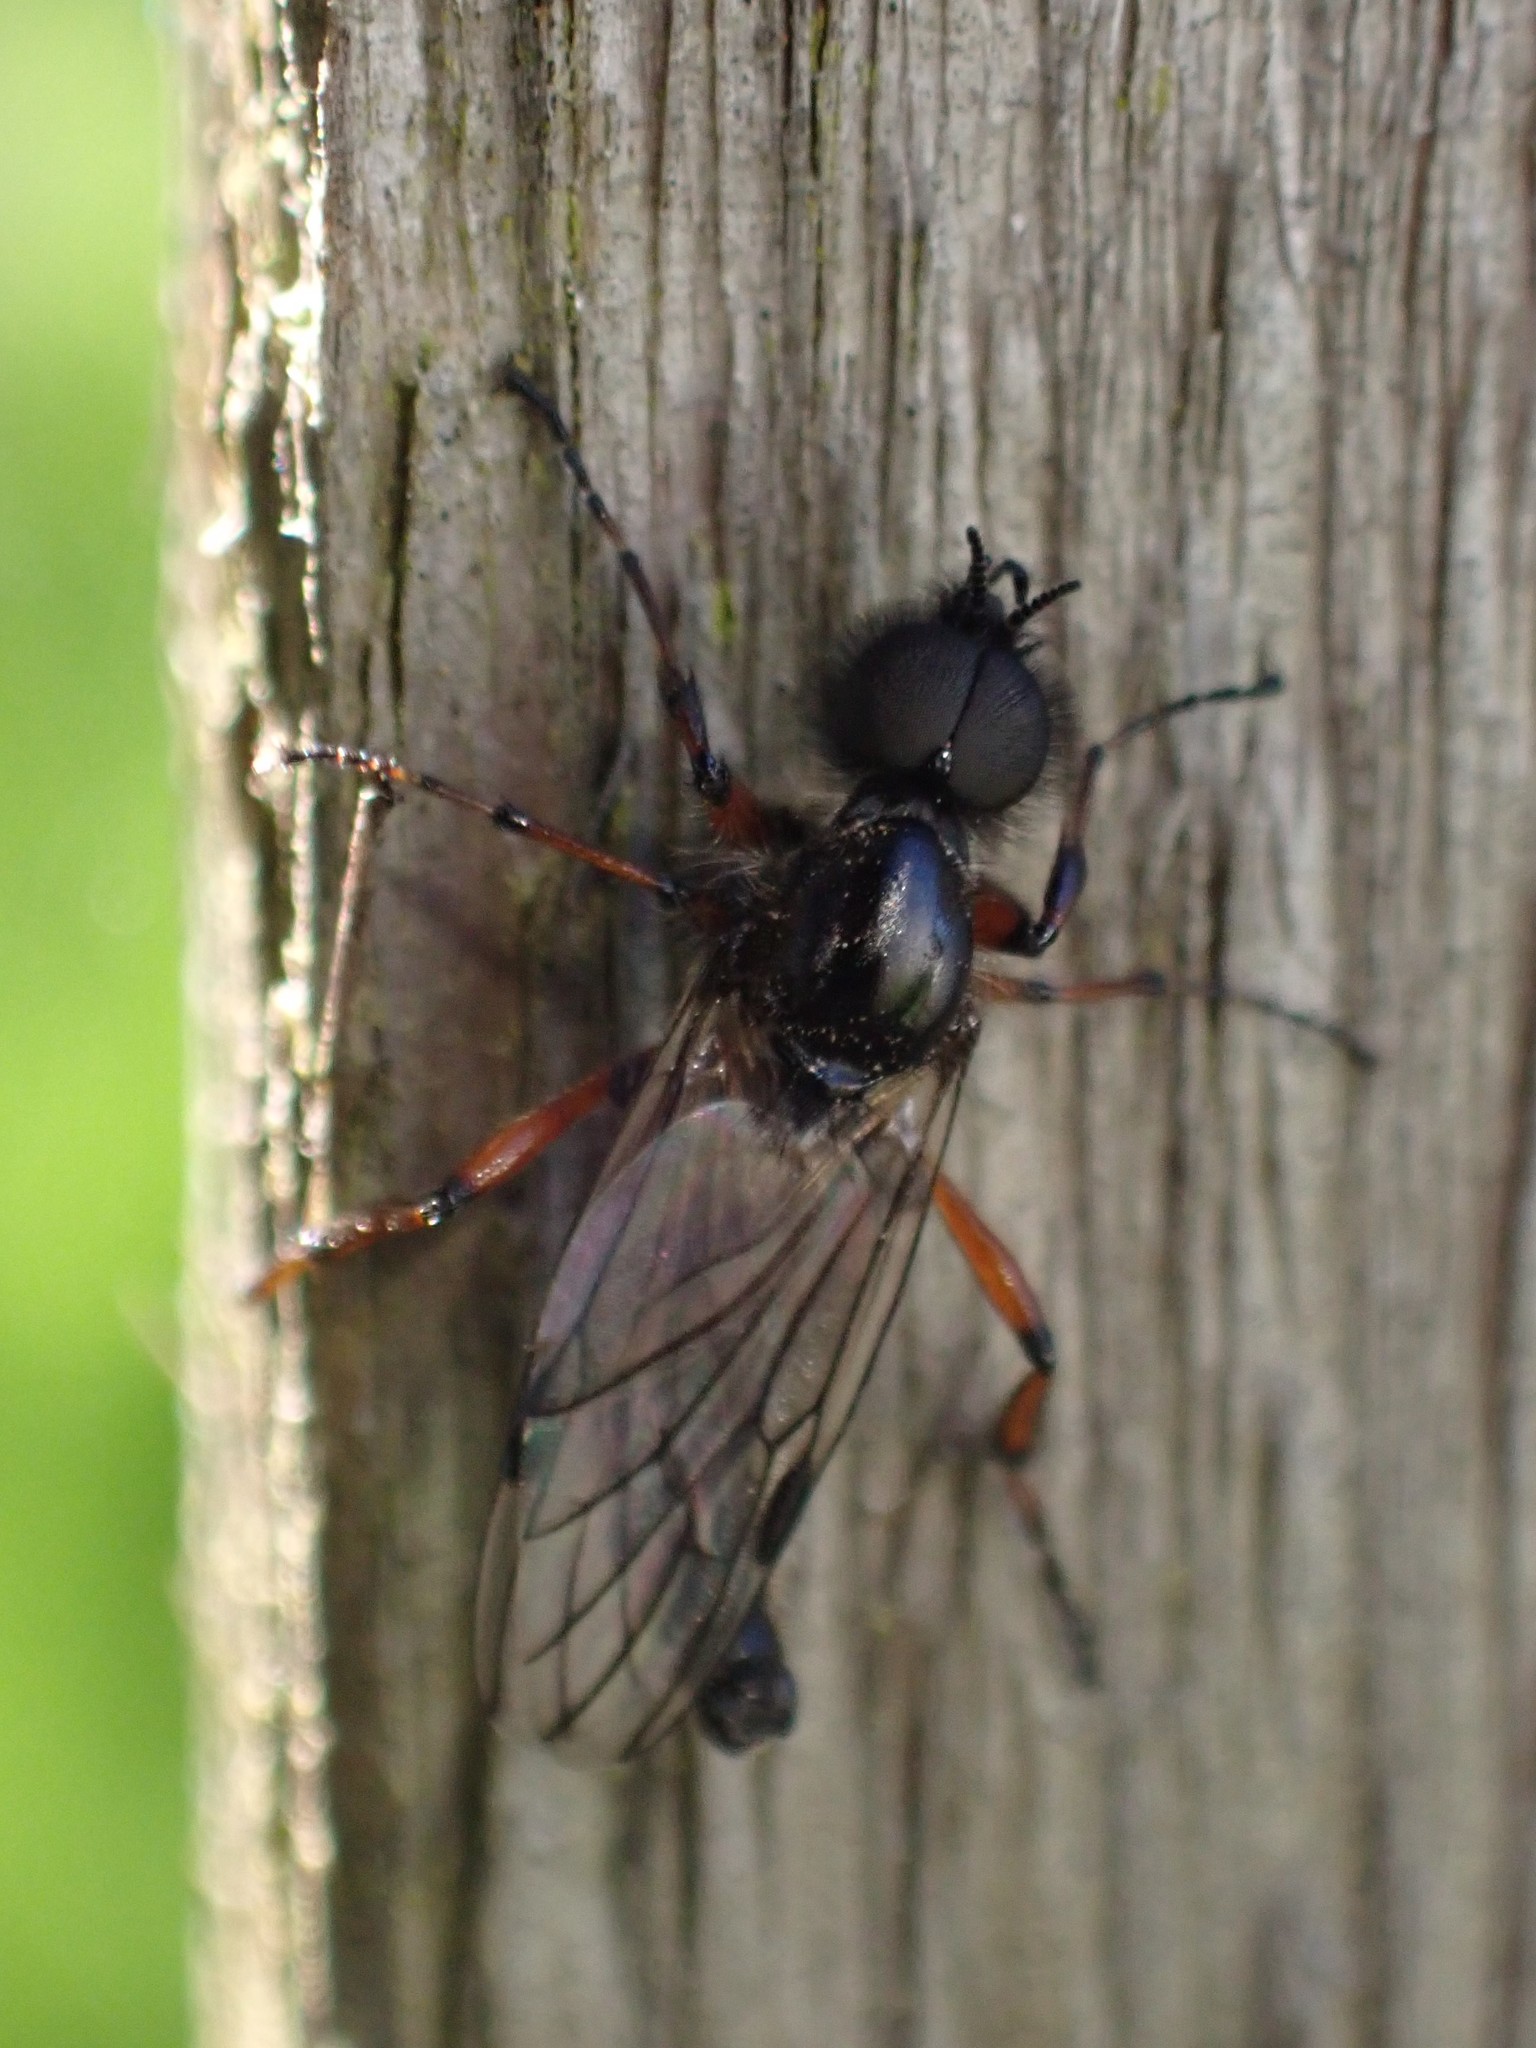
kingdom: Animalia
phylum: Arthropoda
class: Insecta
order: Diptera
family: Bibionidae
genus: Bibio
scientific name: Bibio
